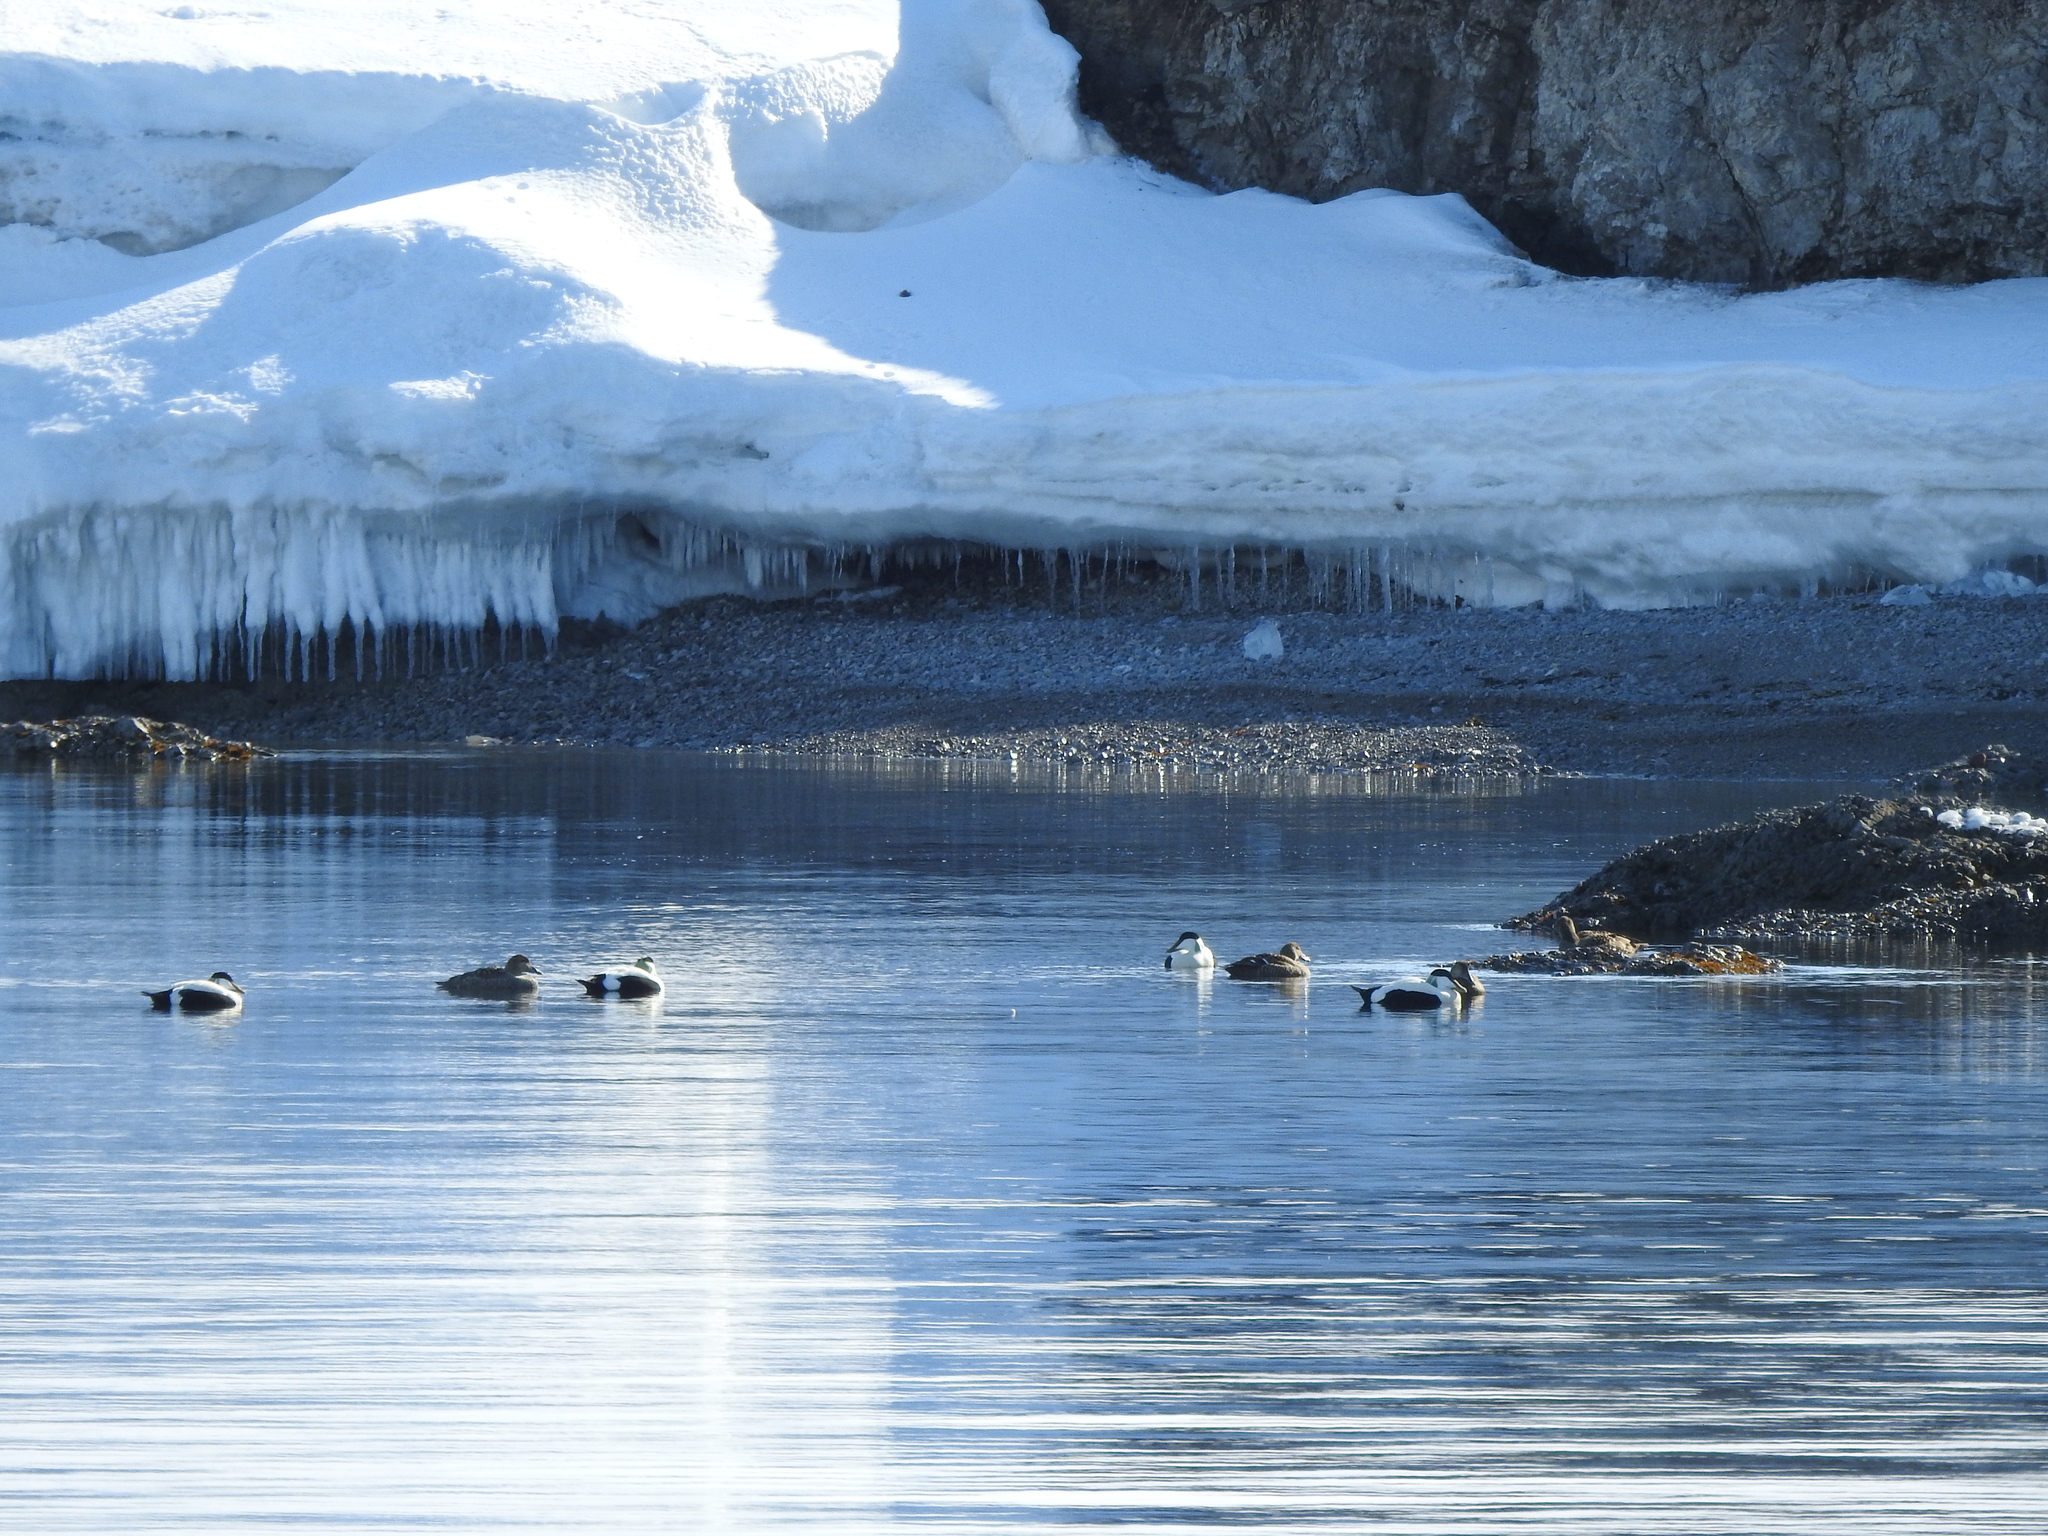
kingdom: Animalia
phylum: Chordata
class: Aves
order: Anseriformes
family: Anatidae
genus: Somateria
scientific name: Somateria mollissima
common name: Common eider
